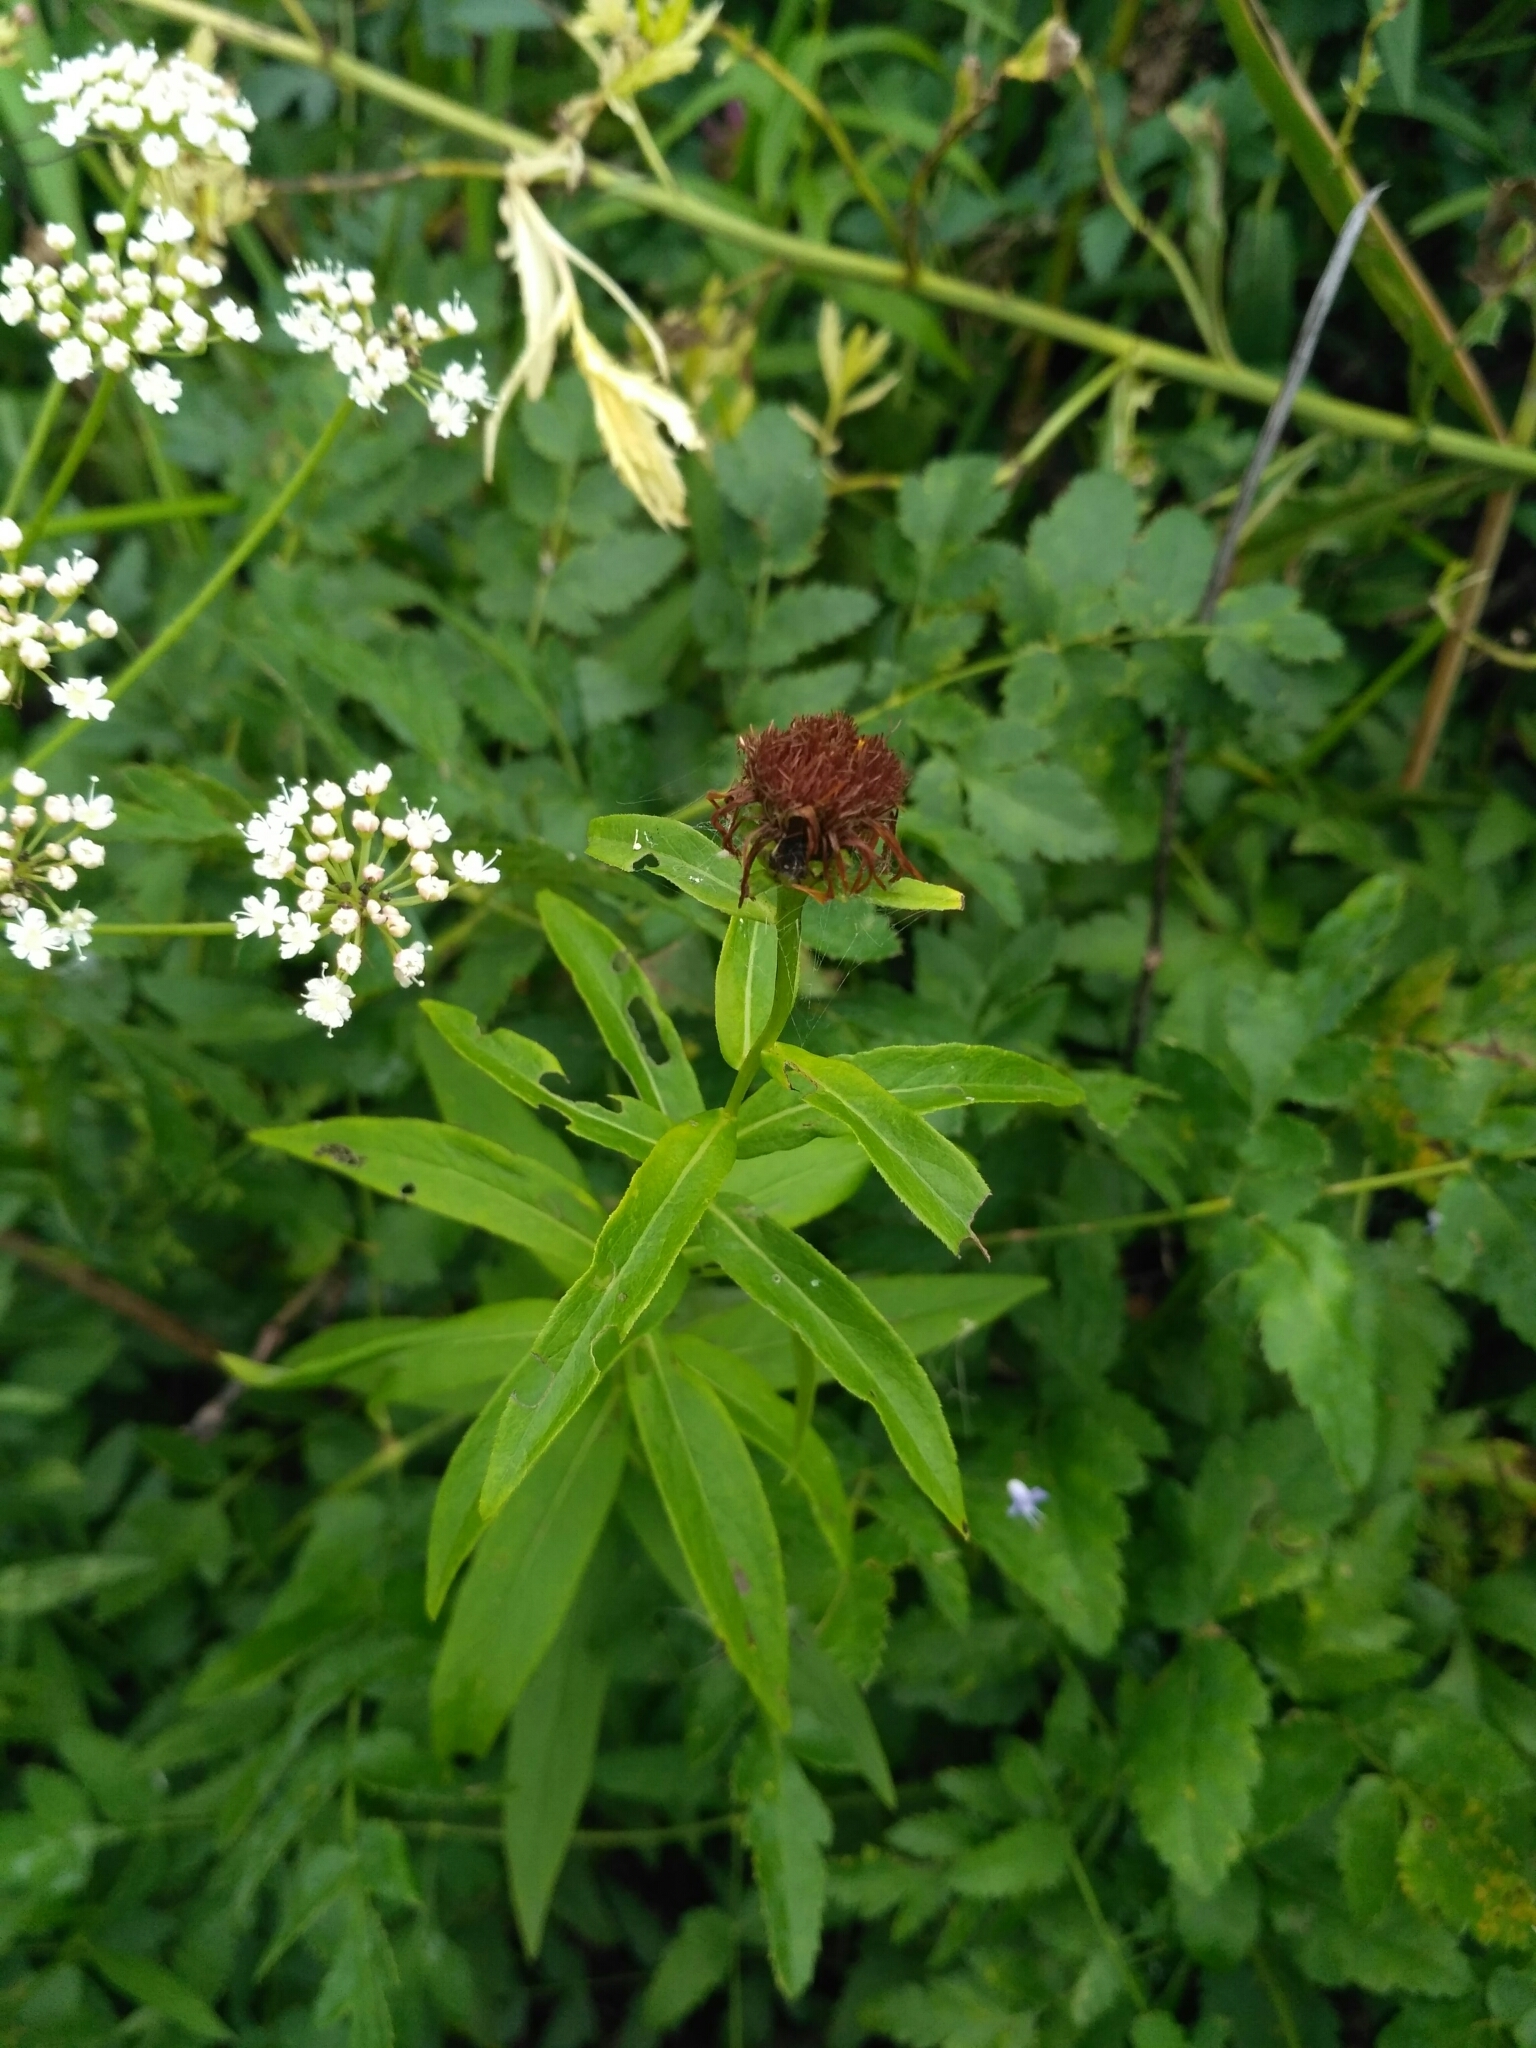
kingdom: Plantae
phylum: Tracheophyta
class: Magnoliopsida
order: Asterales
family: Asteraceae
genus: Pentanema
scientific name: Pentanema salicinum
